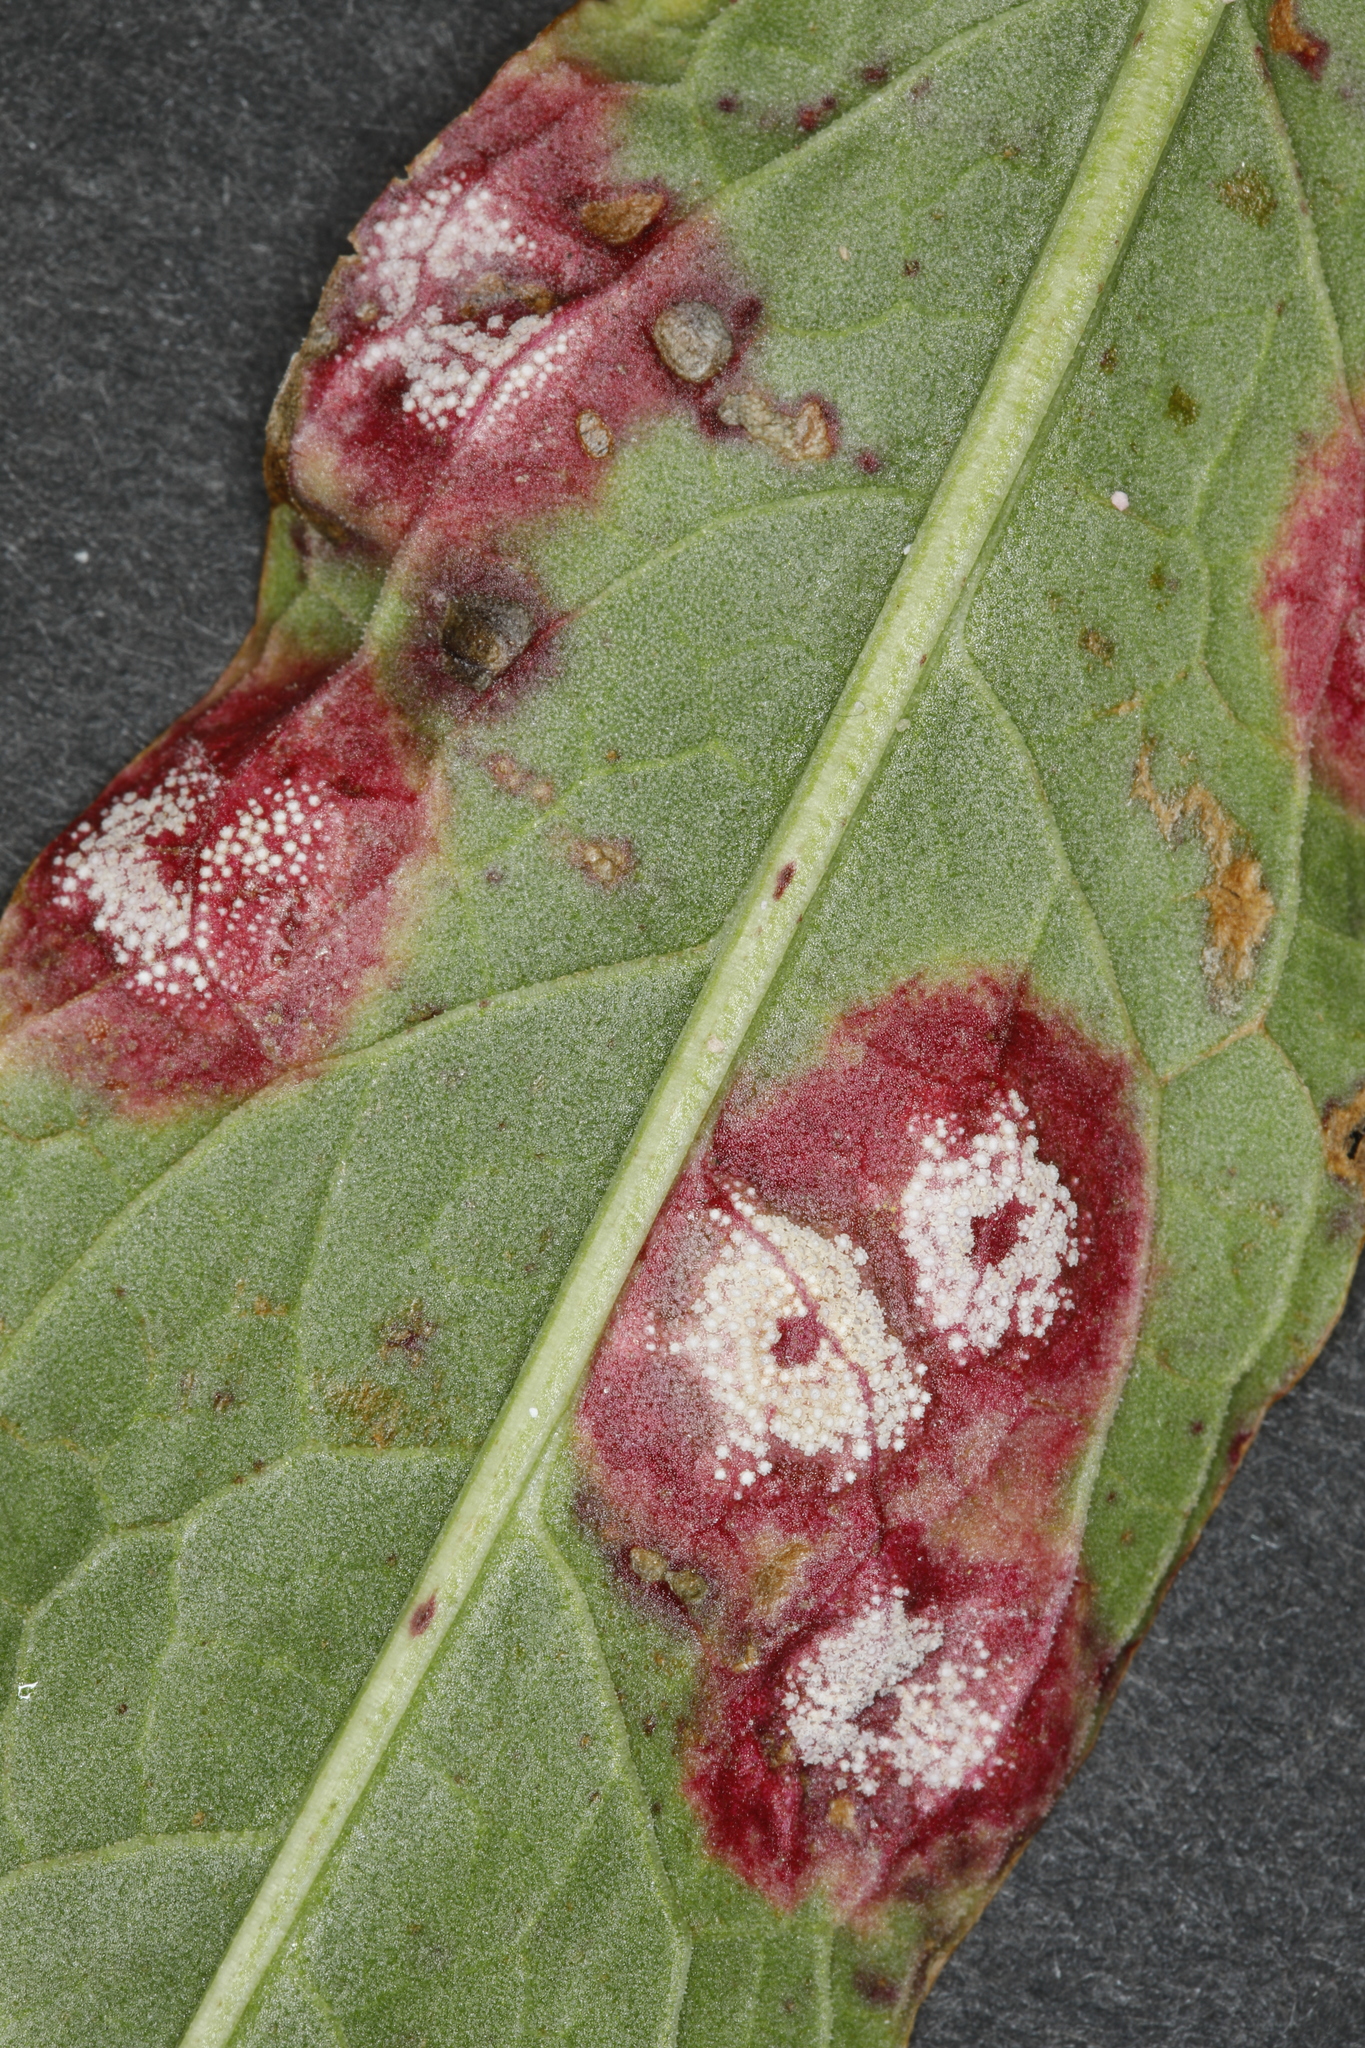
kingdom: Fungi
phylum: Basidiomycota
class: Pucciniomycetes
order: Pucciniales
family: Pucciniaceae
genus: Puccinia
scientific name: Puccinia phragmitis
